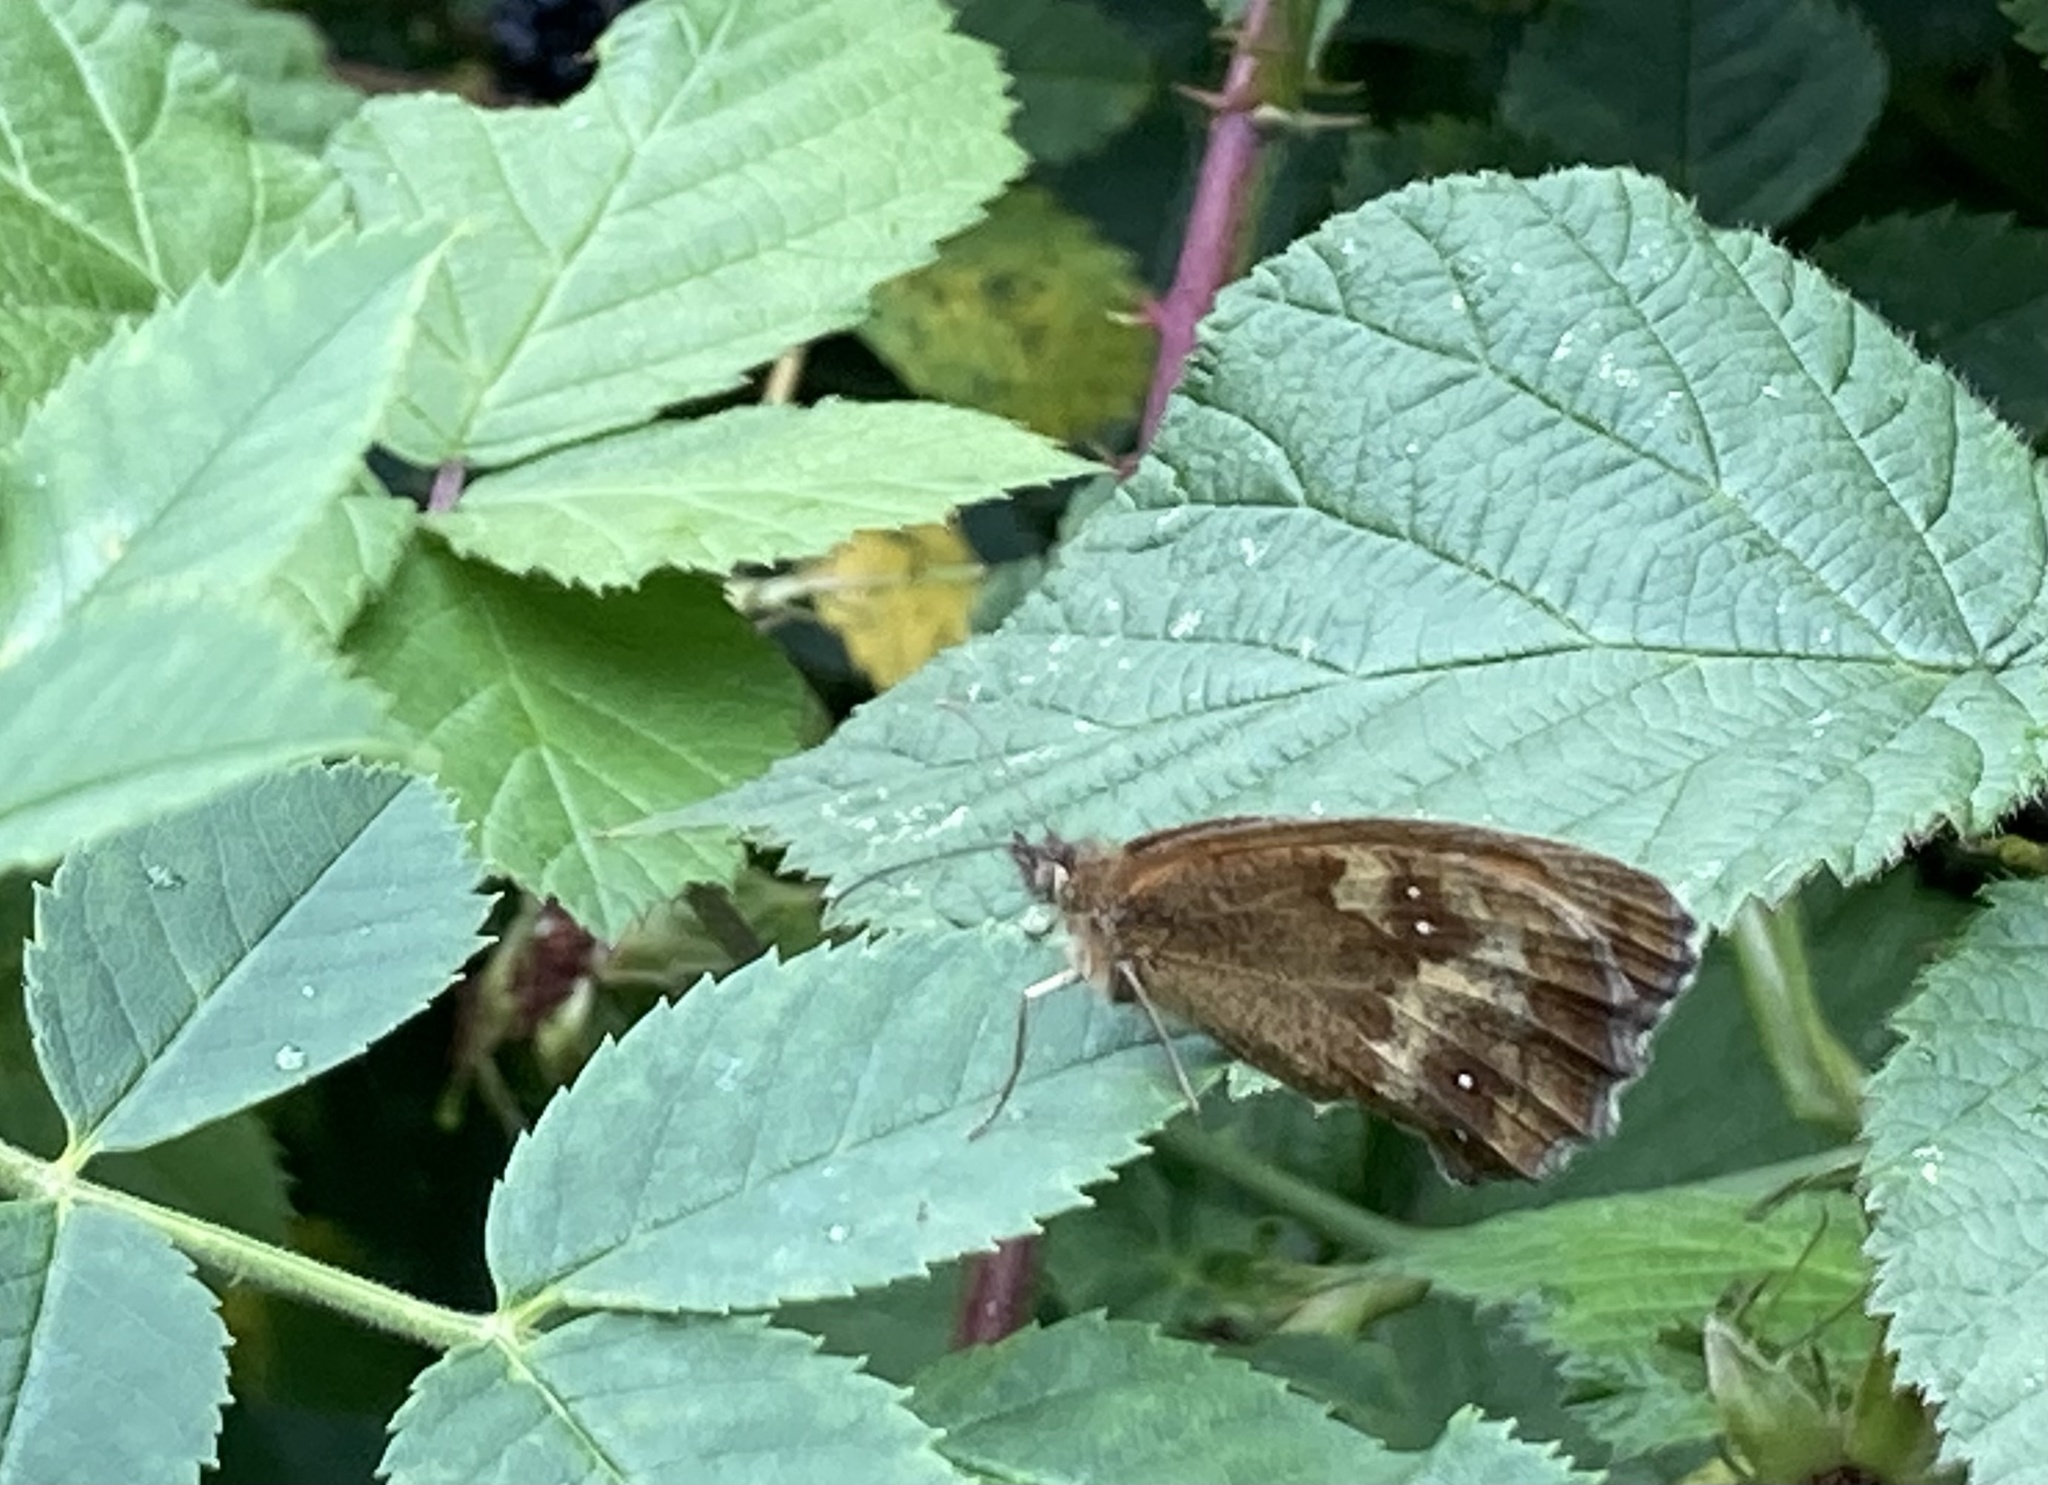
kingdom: Animalia
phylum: Arthropoda
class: Insecta
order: Lepidoptera
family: Nymphalidae
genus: Pyronia
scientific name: Pyronia tithonus
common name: Gatekeeper
